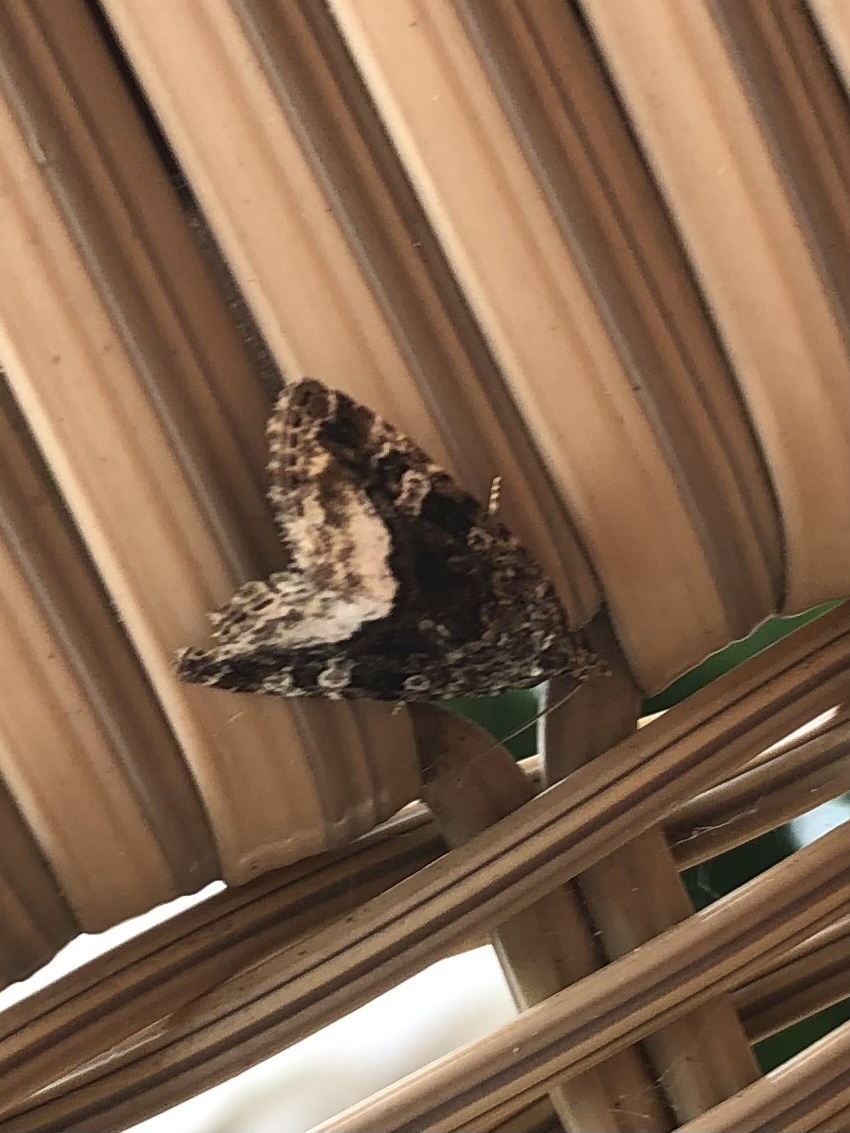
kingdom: Animalia
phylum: Arthropoda
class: Insecta
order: Lepidoptera
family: Noctuidae
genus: Deltote
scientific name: Deltote pygarga
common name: Marbled white spot
